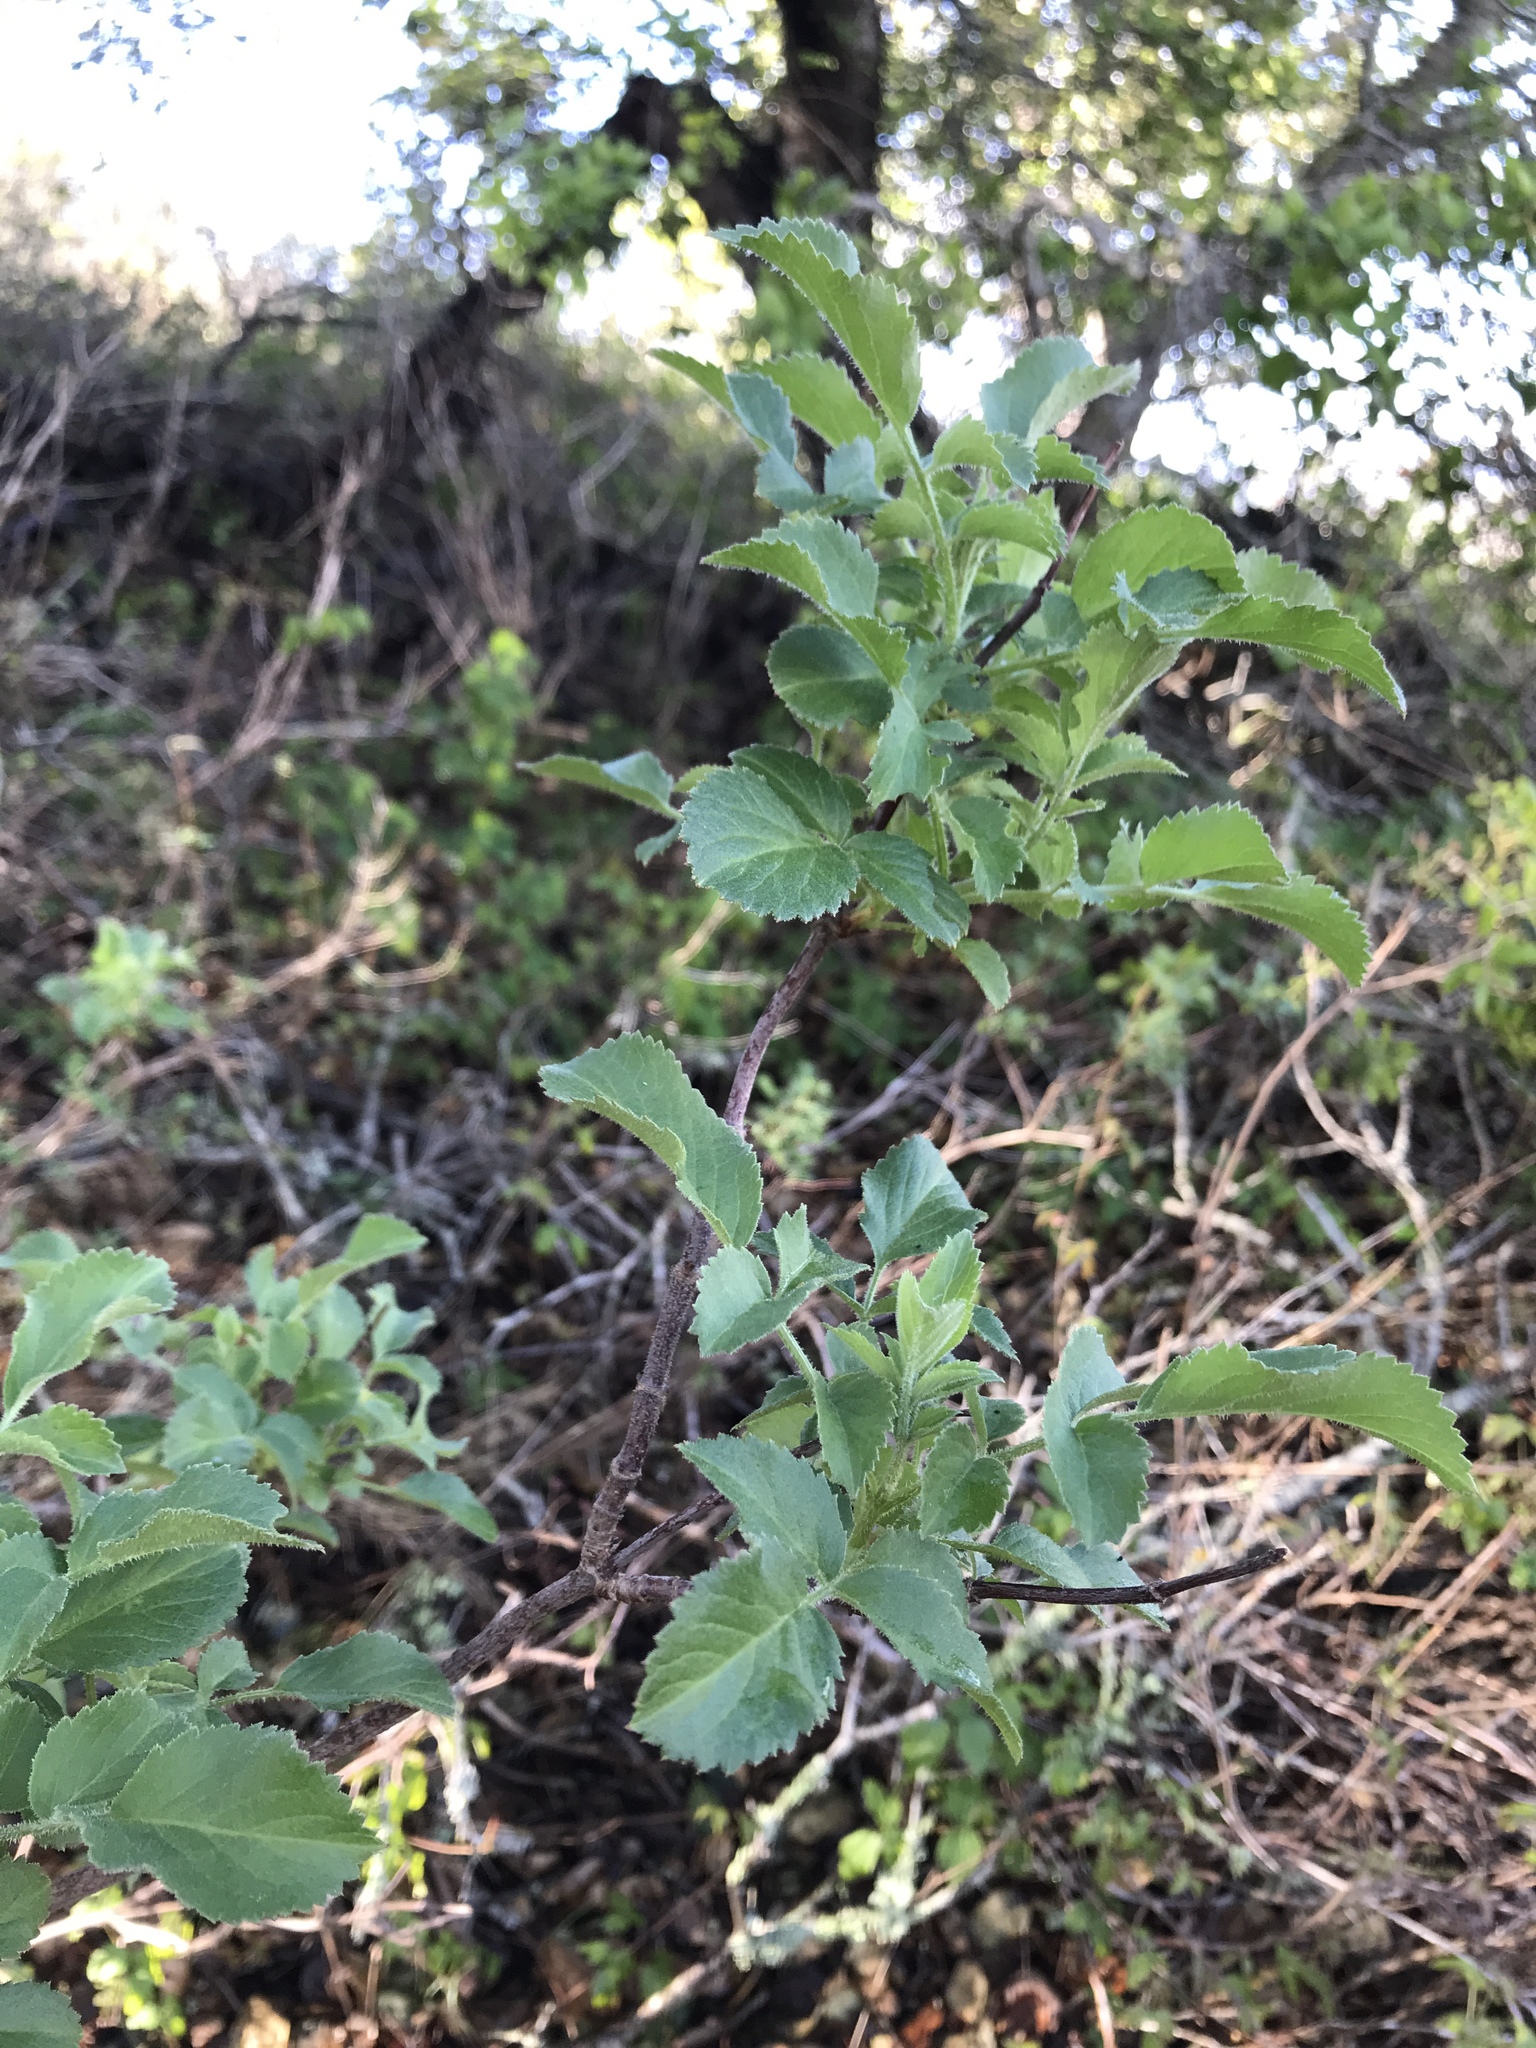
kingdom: Plantae
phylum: Tracheophyta
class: Magnoliopsida
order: Dipsacales
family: Viburnaceae
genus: Sambucus
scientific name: Sambucus cerulea
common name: Blue elder
